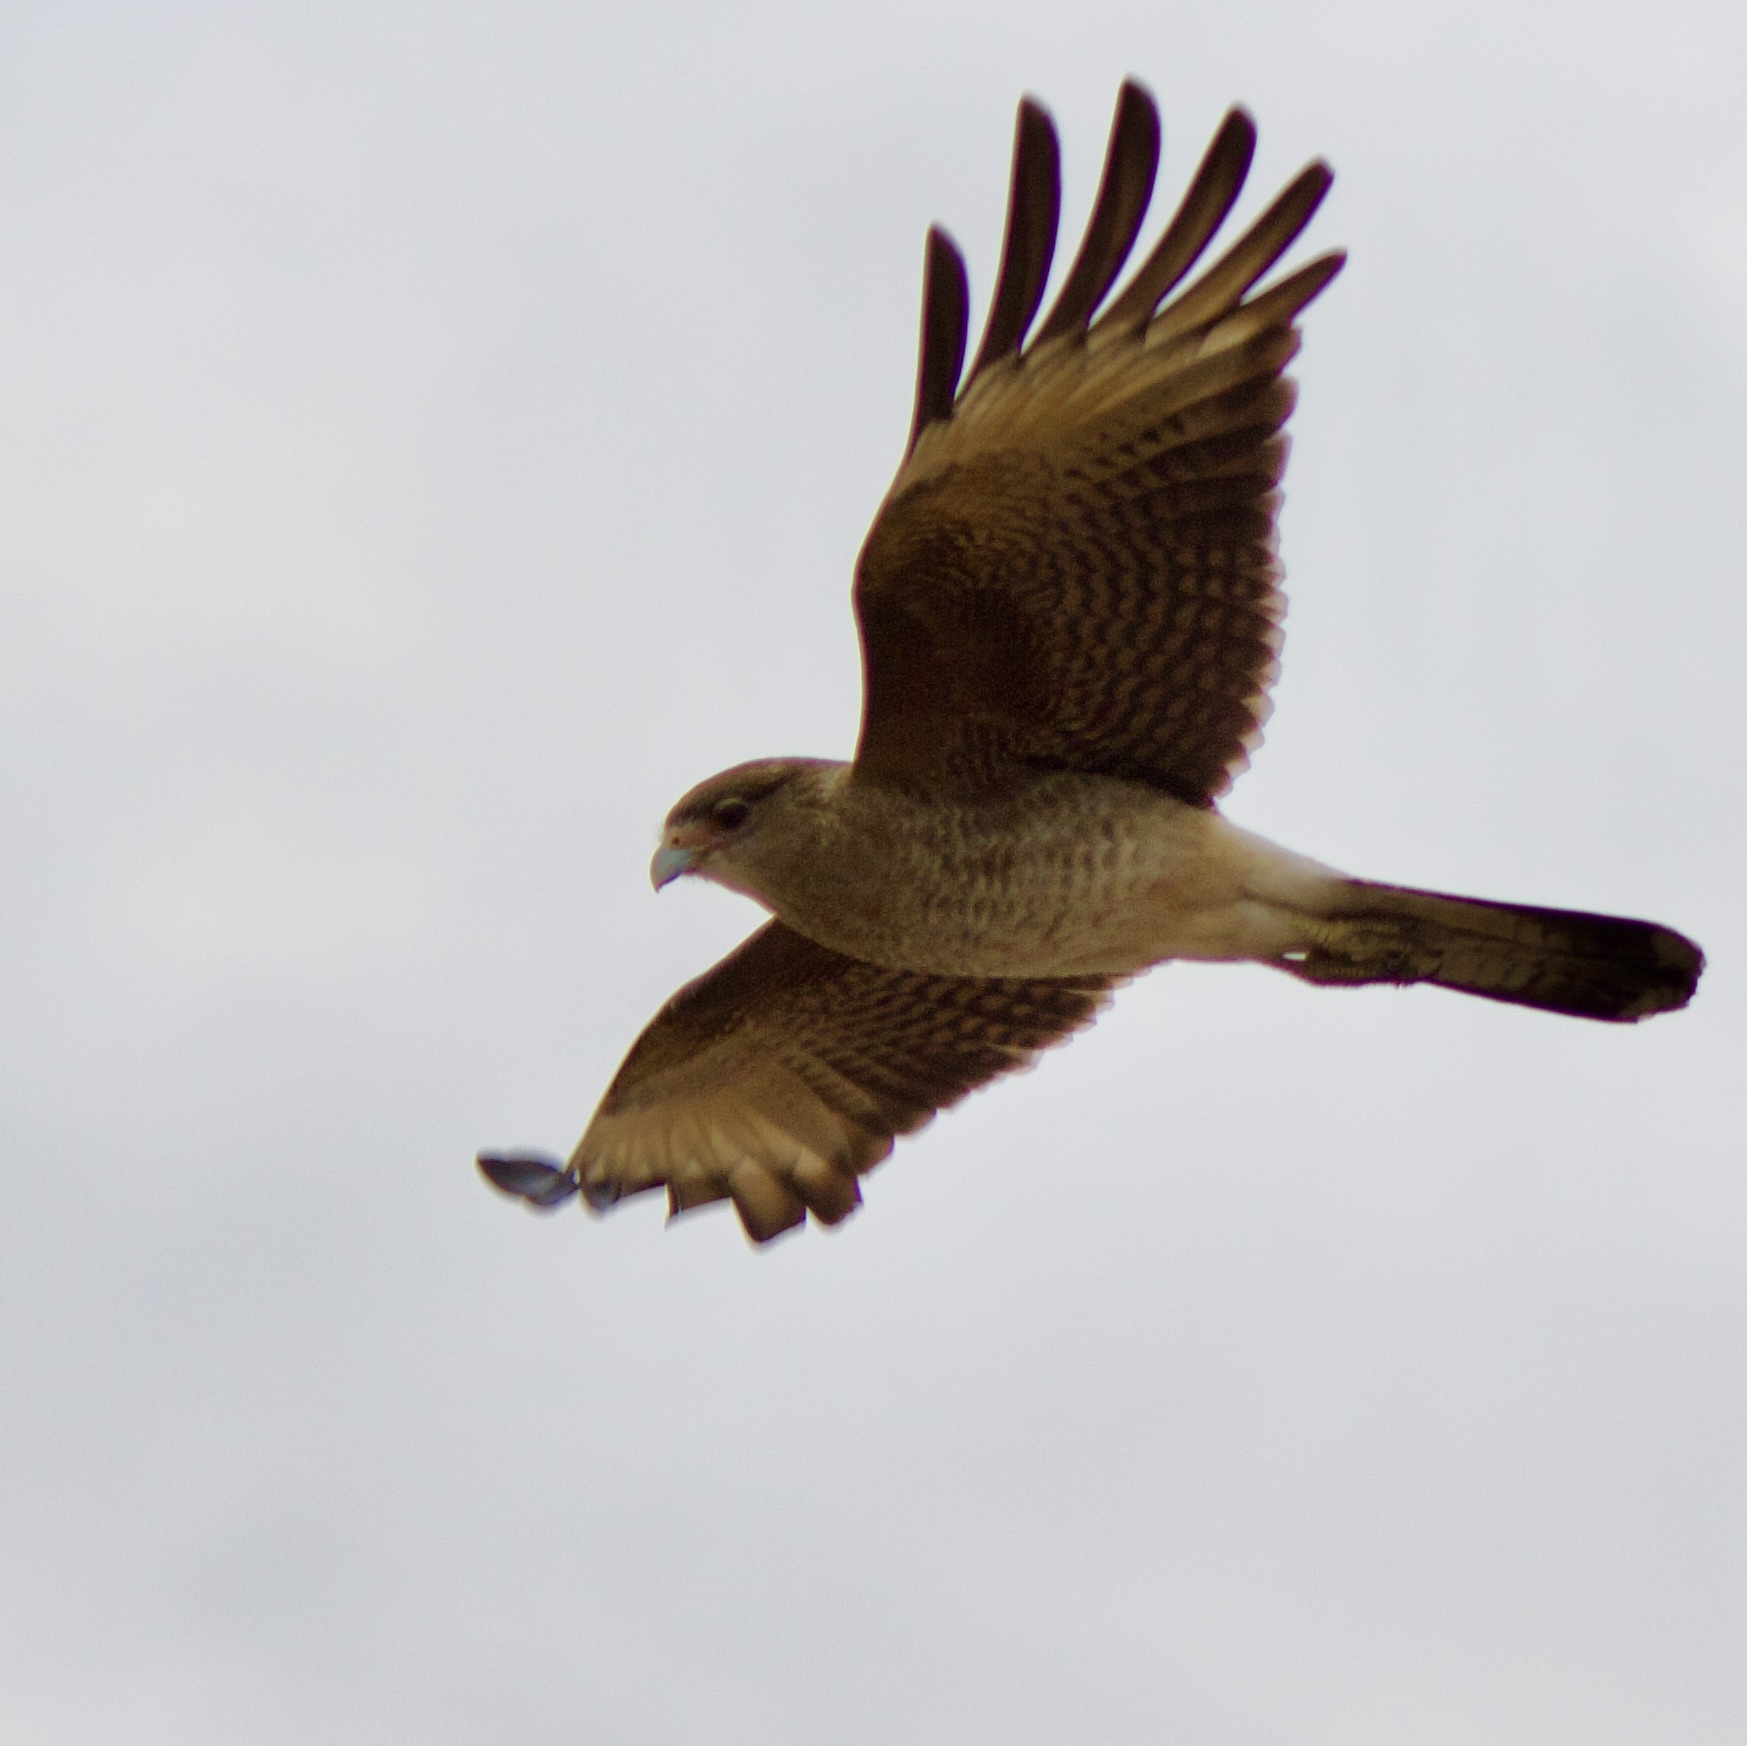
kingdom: Animalia
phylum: Chordata
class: Aves
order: Falconiformes
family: Falconidae
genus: Daptrius
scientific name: Daptrius
